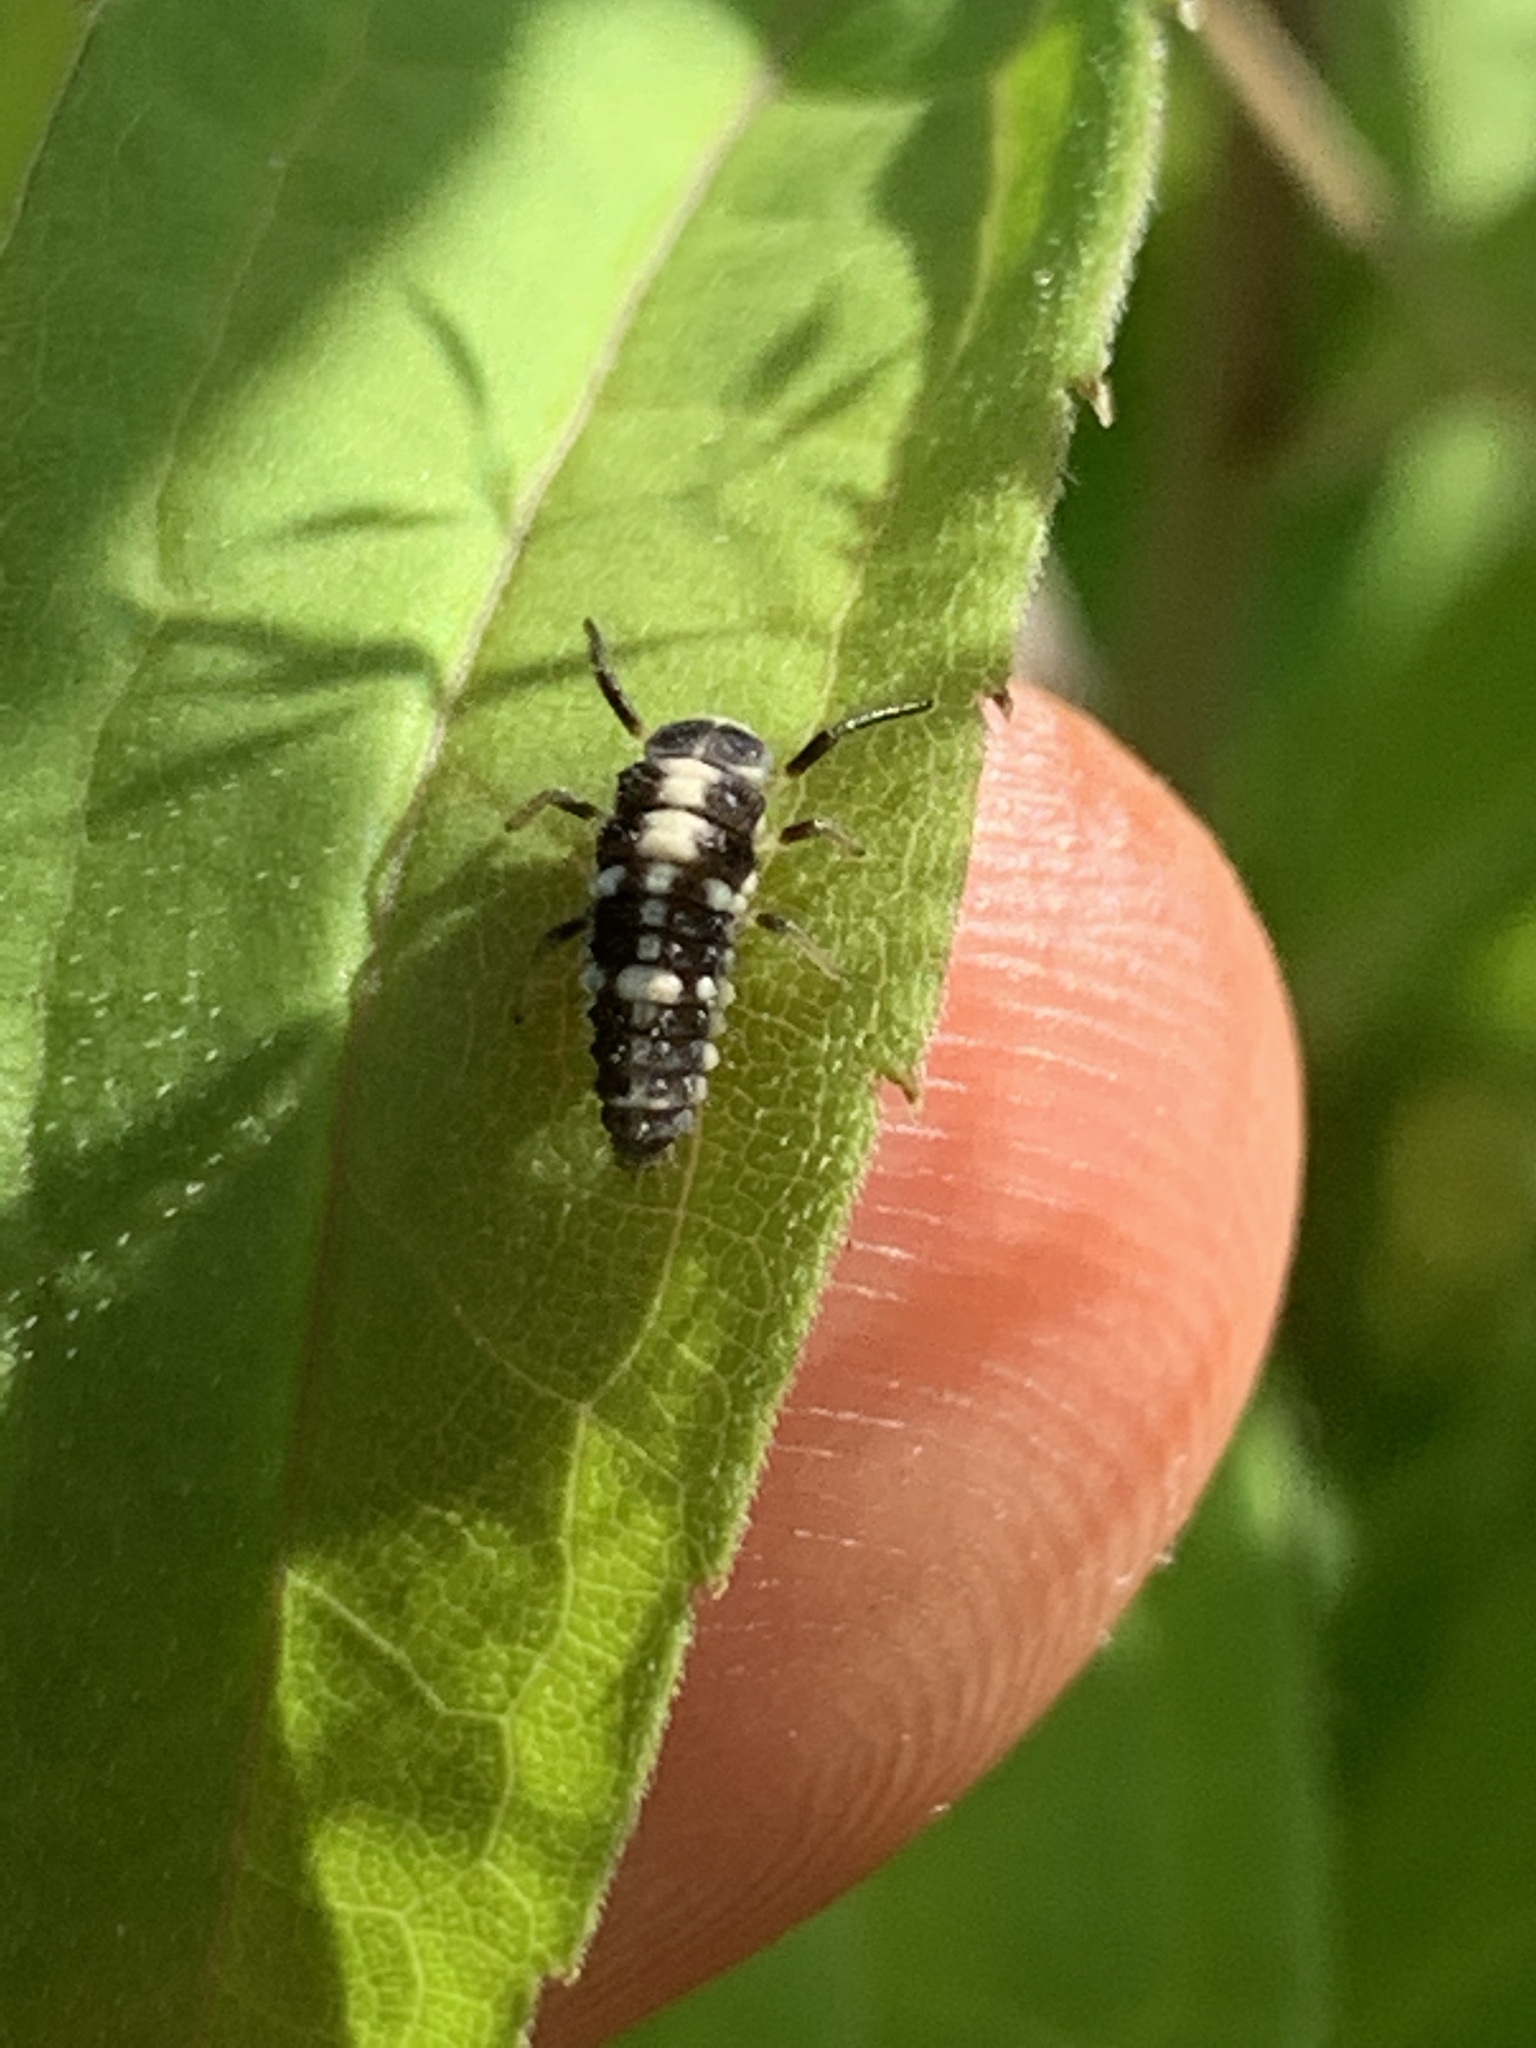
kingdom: Animalia
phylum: Arthropoda
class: Insecta
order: Coleoptera
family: Coccinellidae
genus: Propylaea
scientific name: Propylaea quatuordecimpunctata
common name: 14-spotted ladybird beetle
